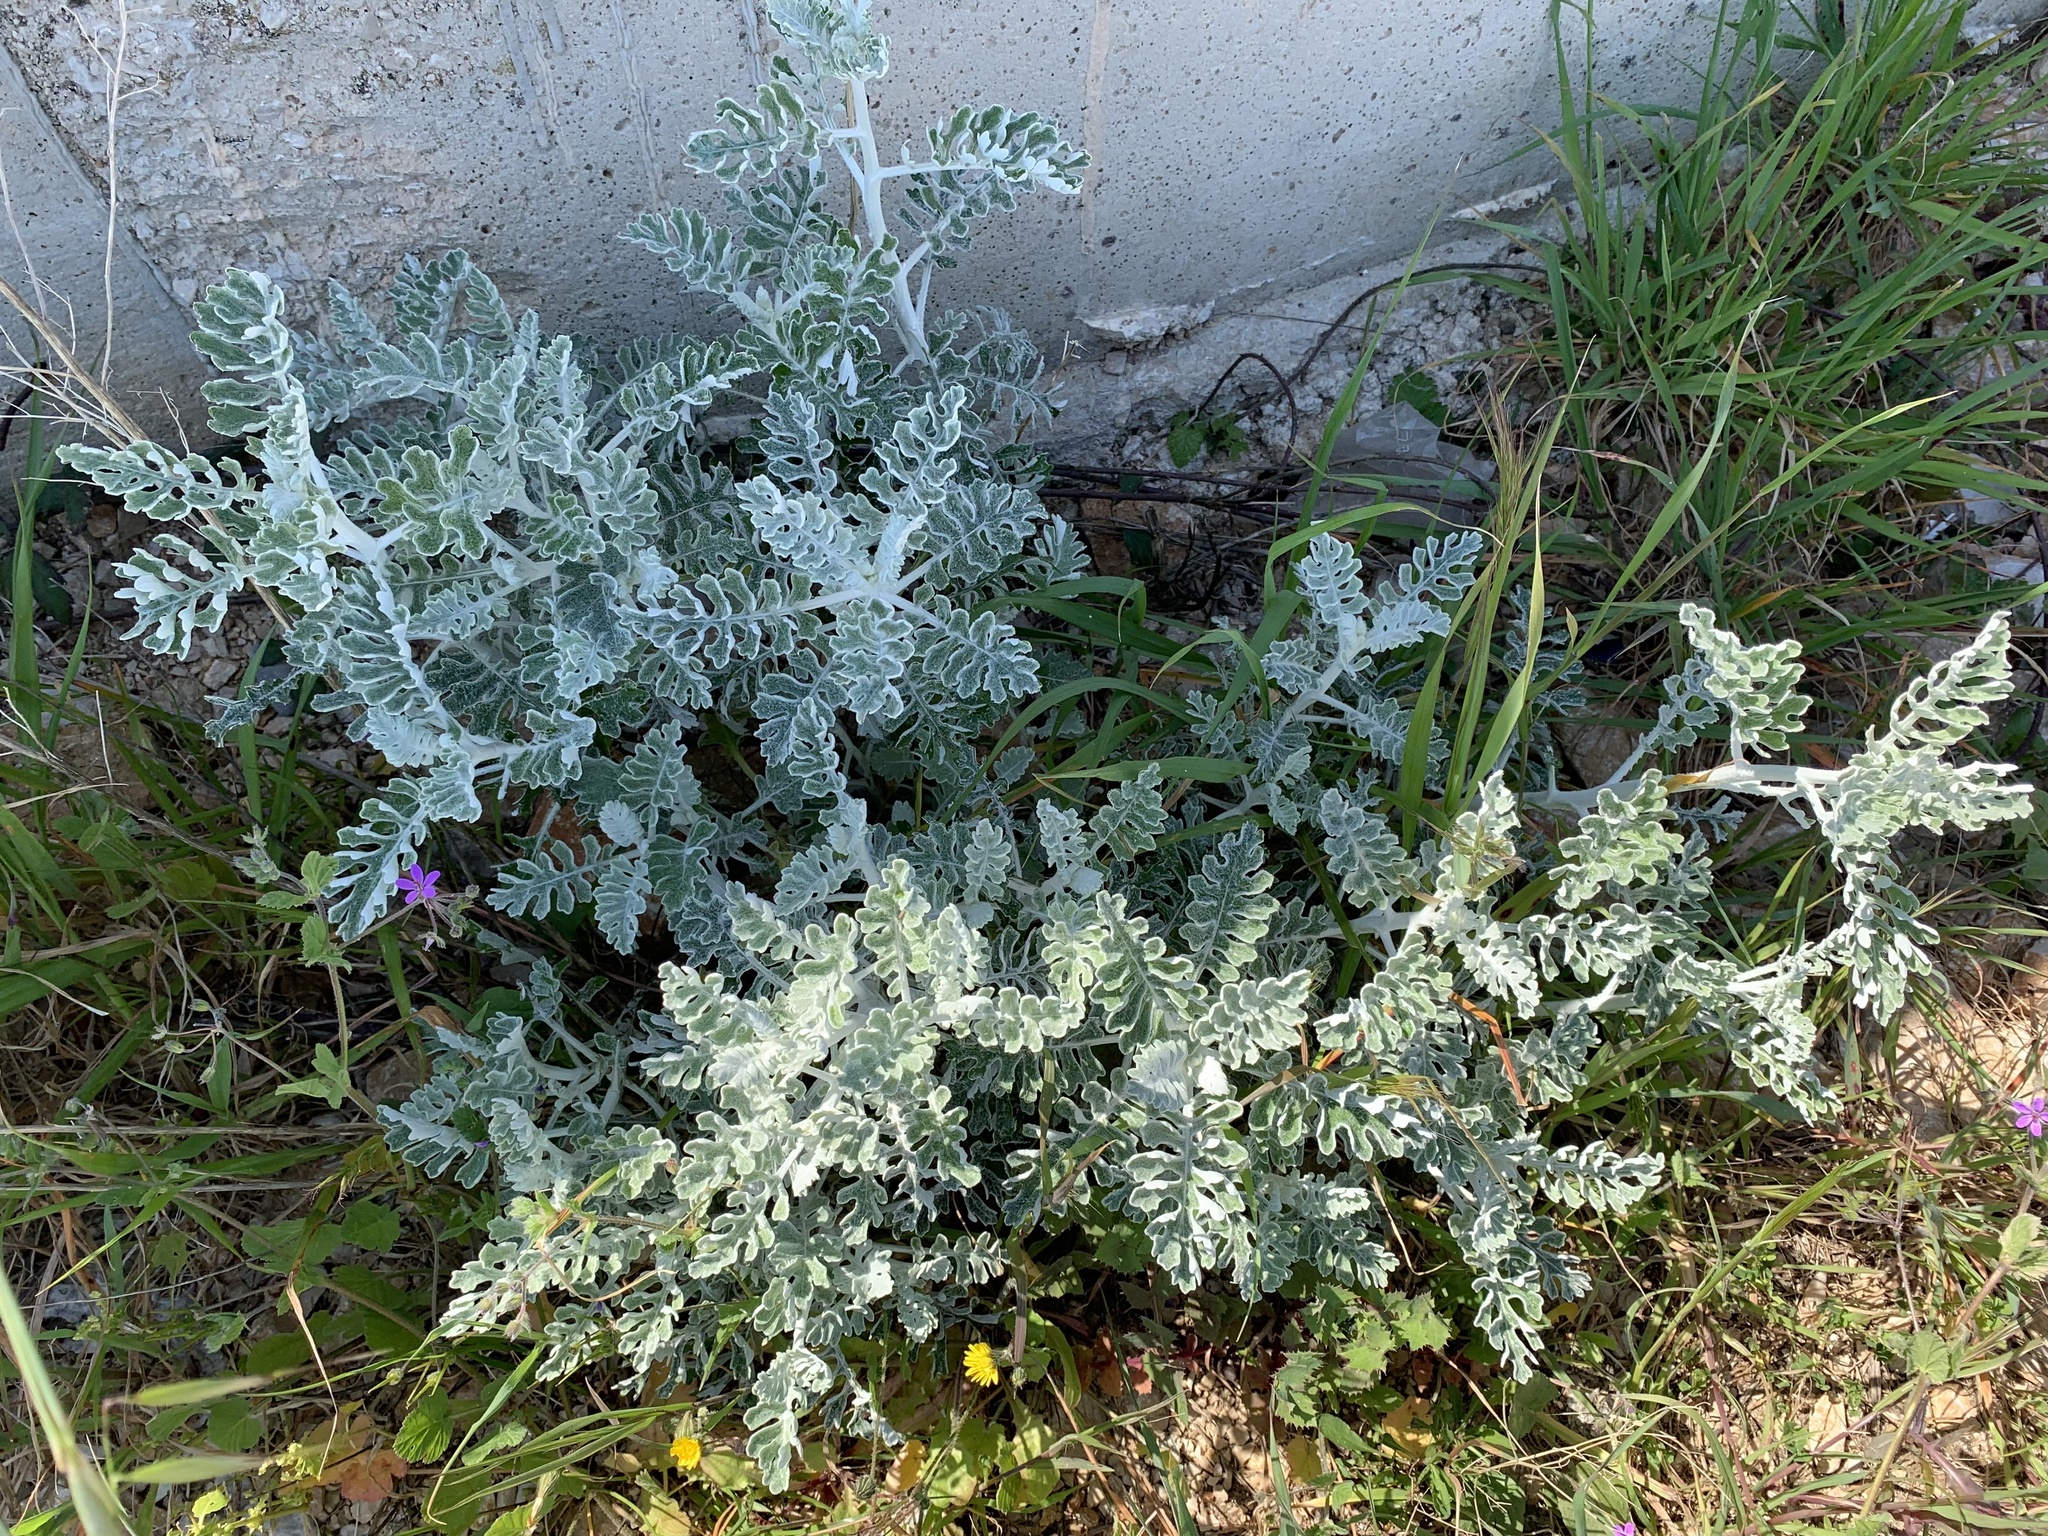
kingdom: Plantae
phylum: Tracheophyta
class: Magnoliopsida
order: Asterales
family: Asteraceae
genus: Jacobaea
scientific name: Jacobaea maritima
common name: Silver ragwort
